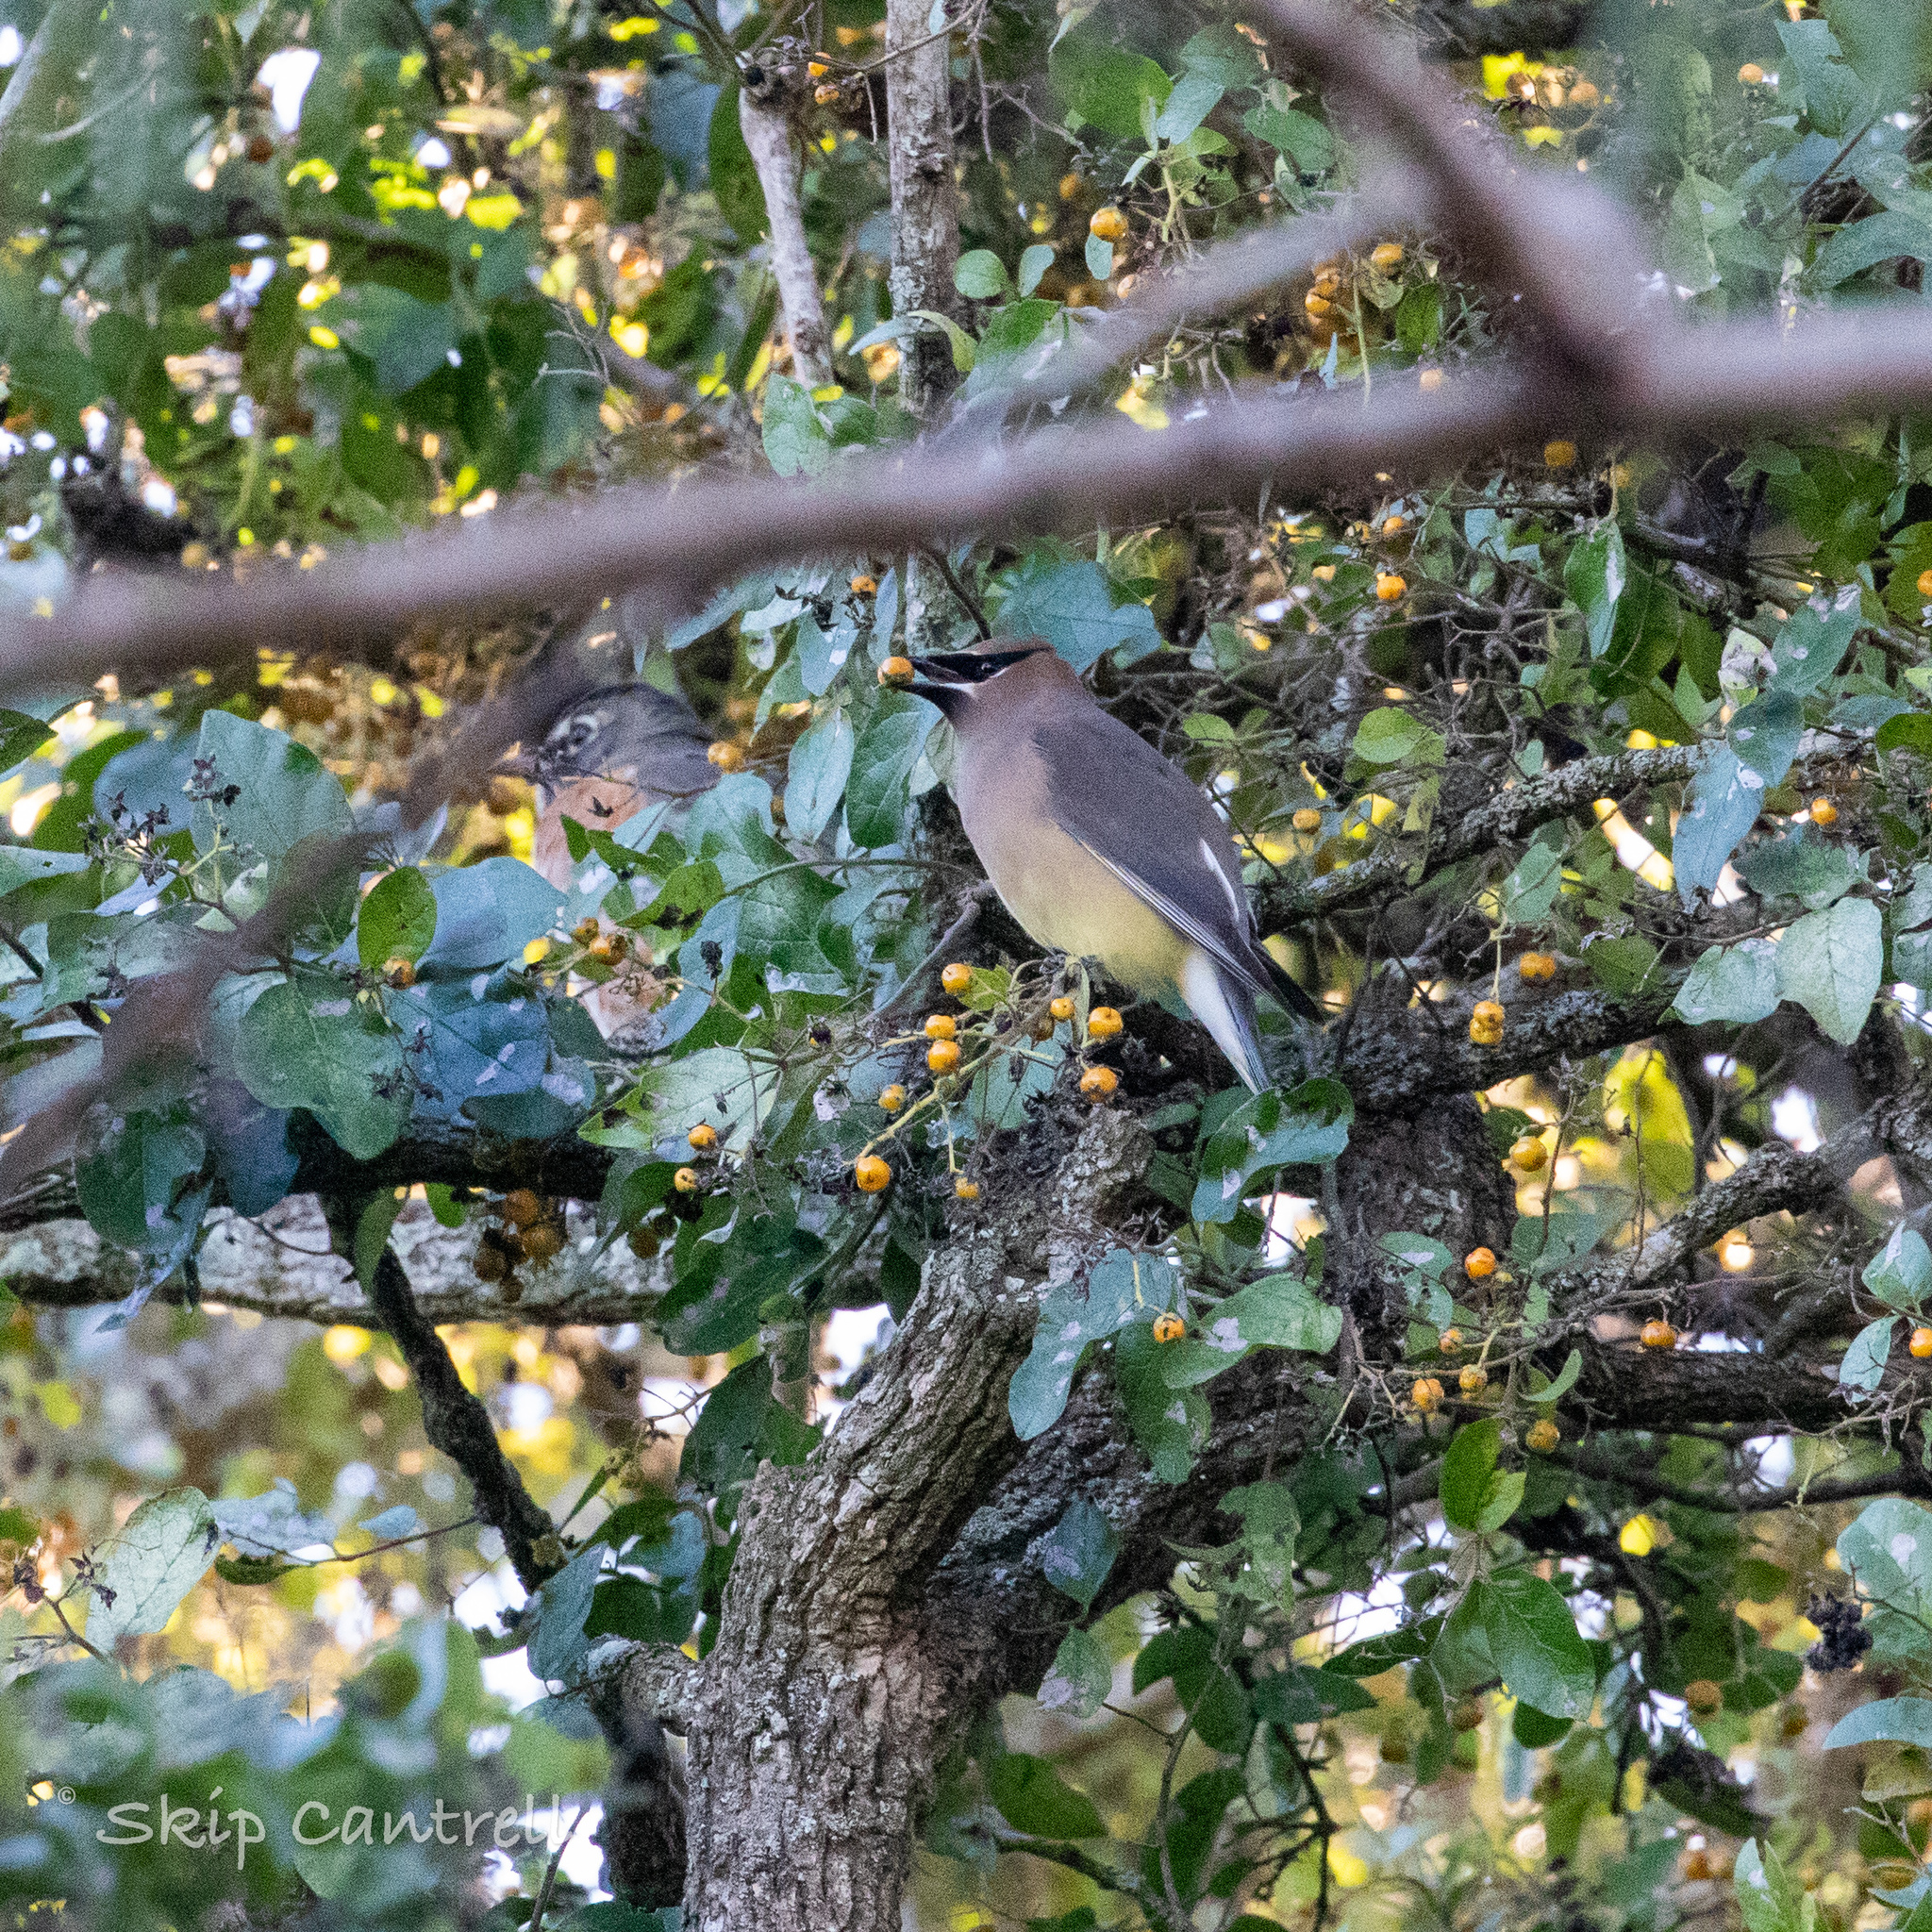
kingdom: Animalia
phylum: Chordata
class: Aves
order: Passeriformes
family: Bombycillidae
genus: Bombycilla
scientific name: Bombycilla cedrorum
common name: Cedar waxwing
